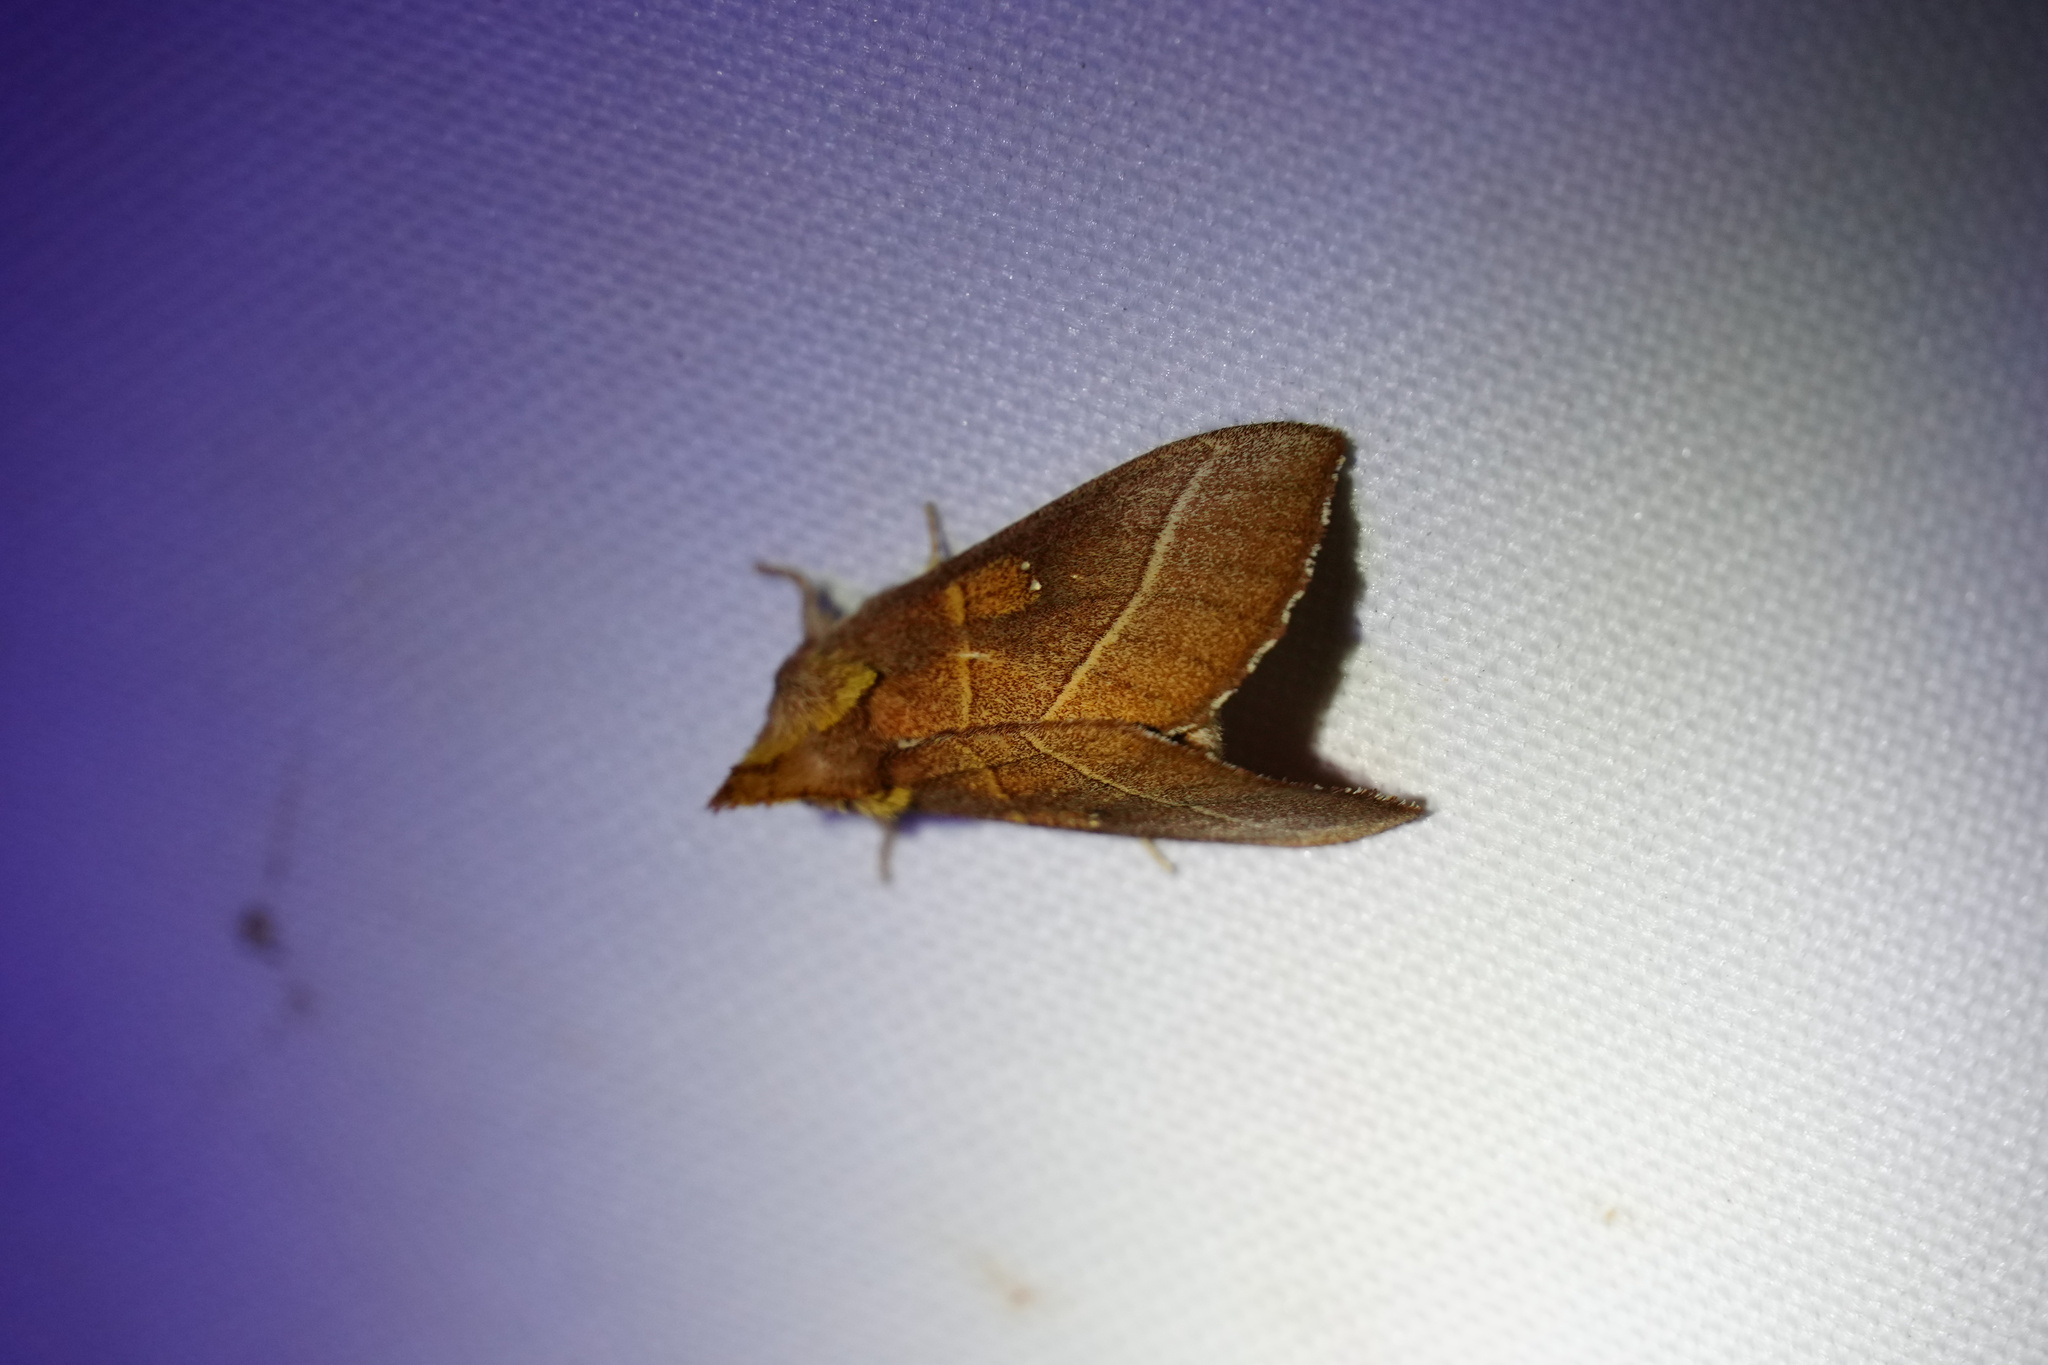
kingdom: Animalia
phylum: Arthropoda
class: Insecta
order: Lepidoptera
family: Notodontidae
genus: Nadata
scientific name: Nadata gibbosa
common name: White-dotted prominent
